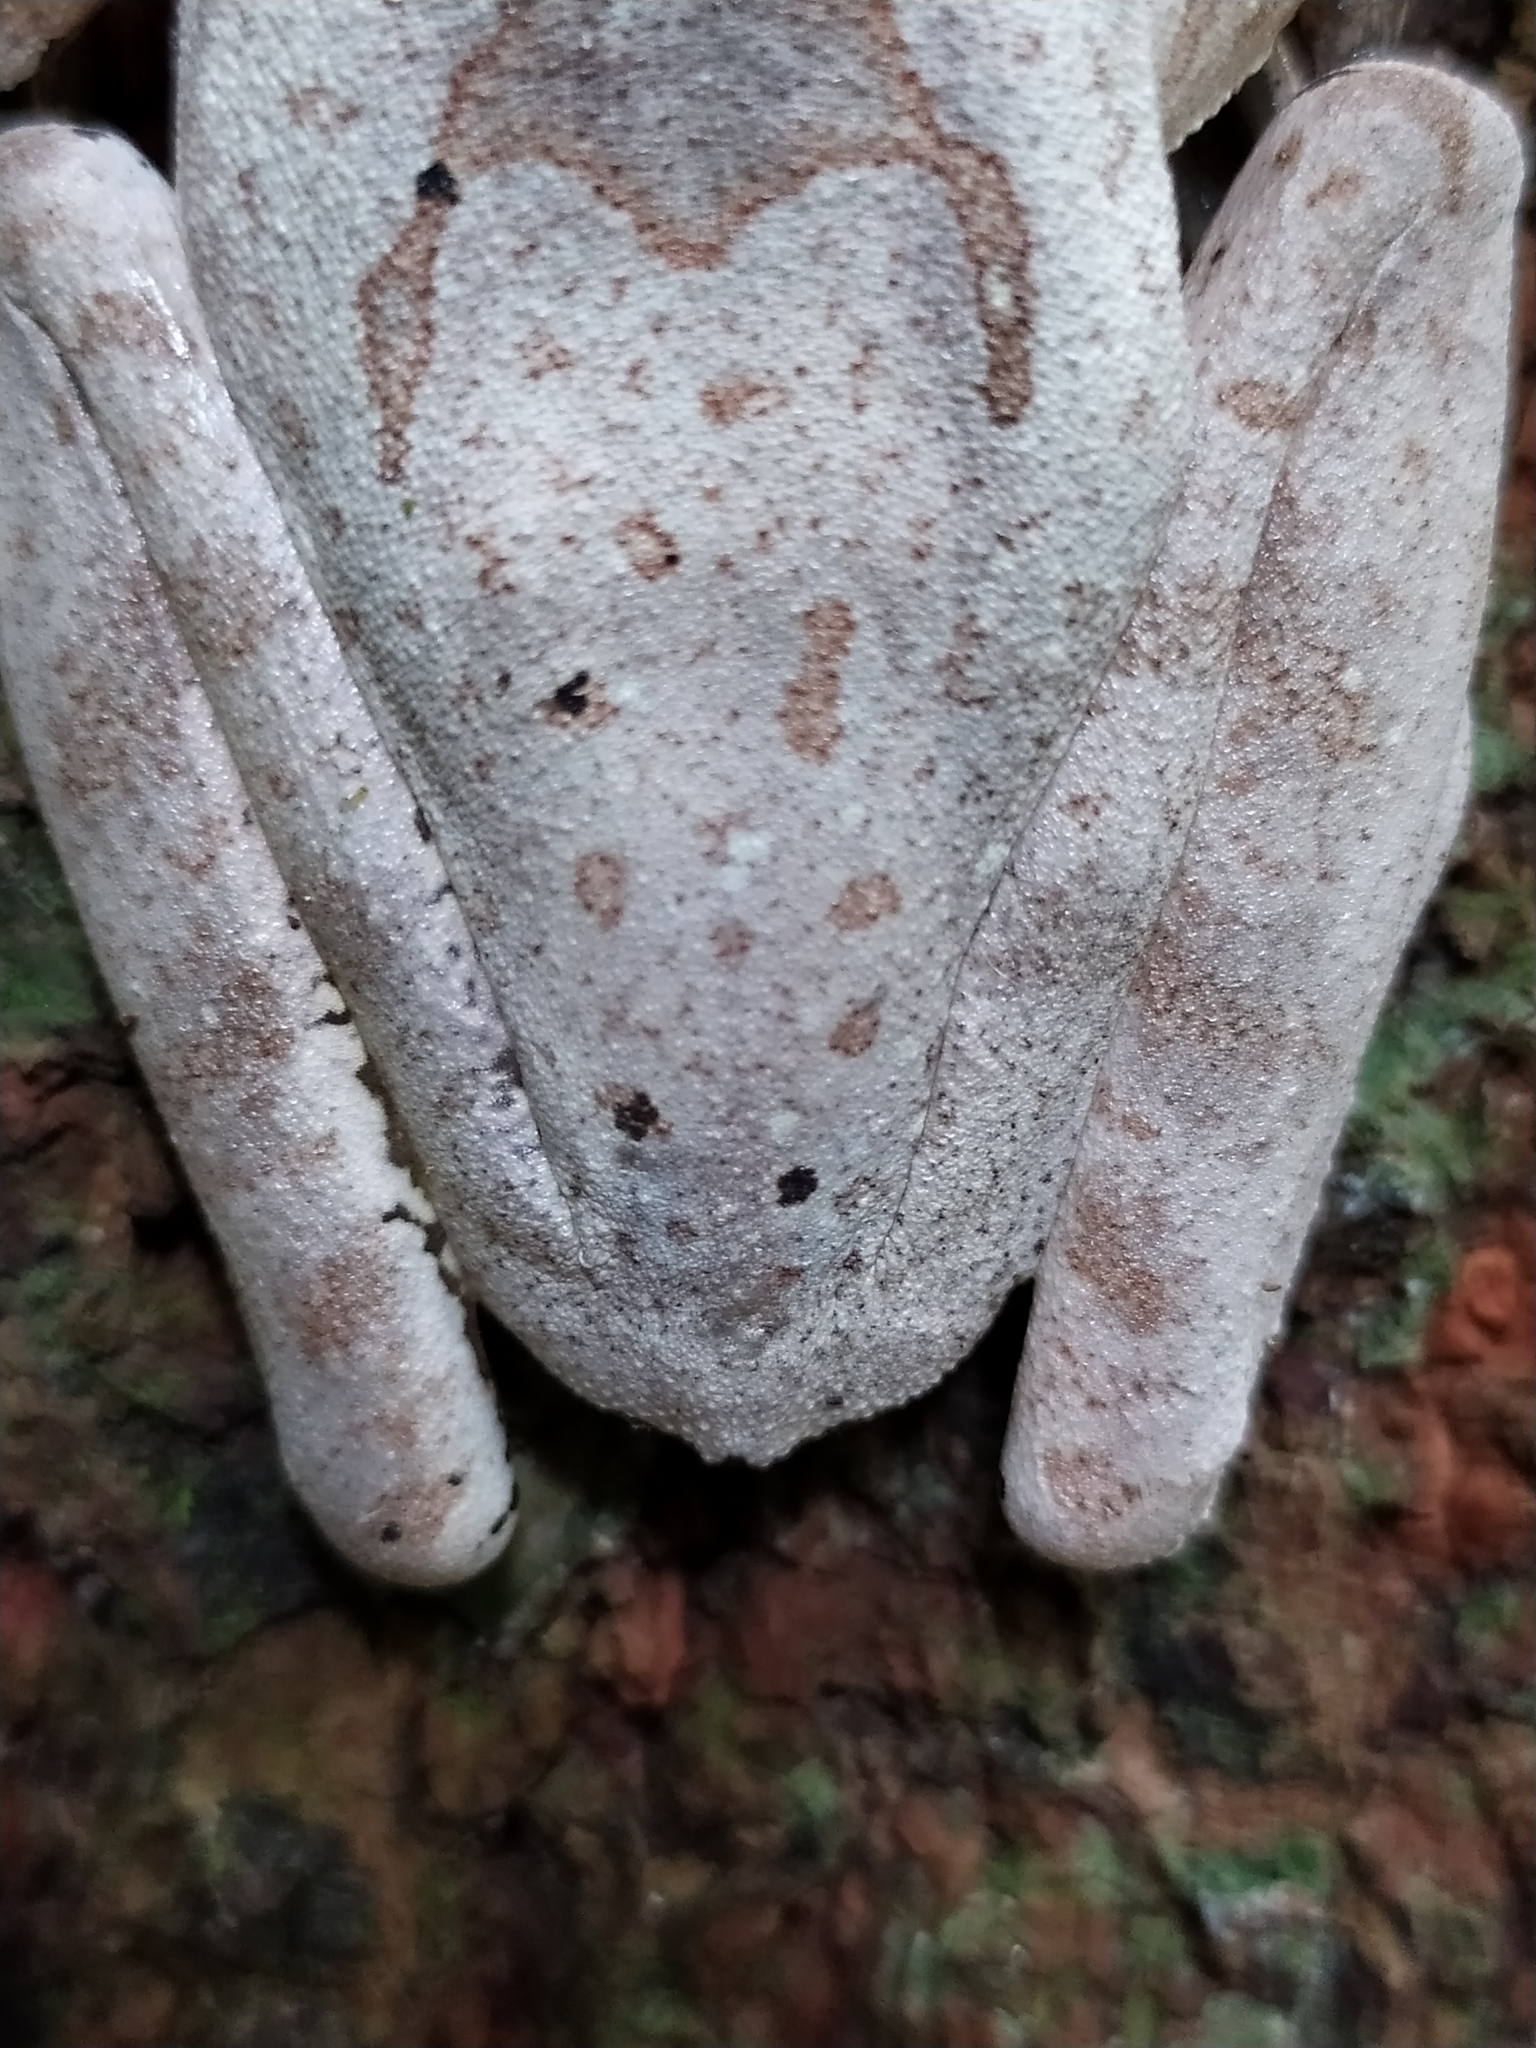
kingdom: Animalia
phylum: Chordata
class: Amphibia
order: Anura
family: Rhacophoridae
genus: Polypedates
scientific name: Polypedates occidentalis
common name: Charpa tree frog
